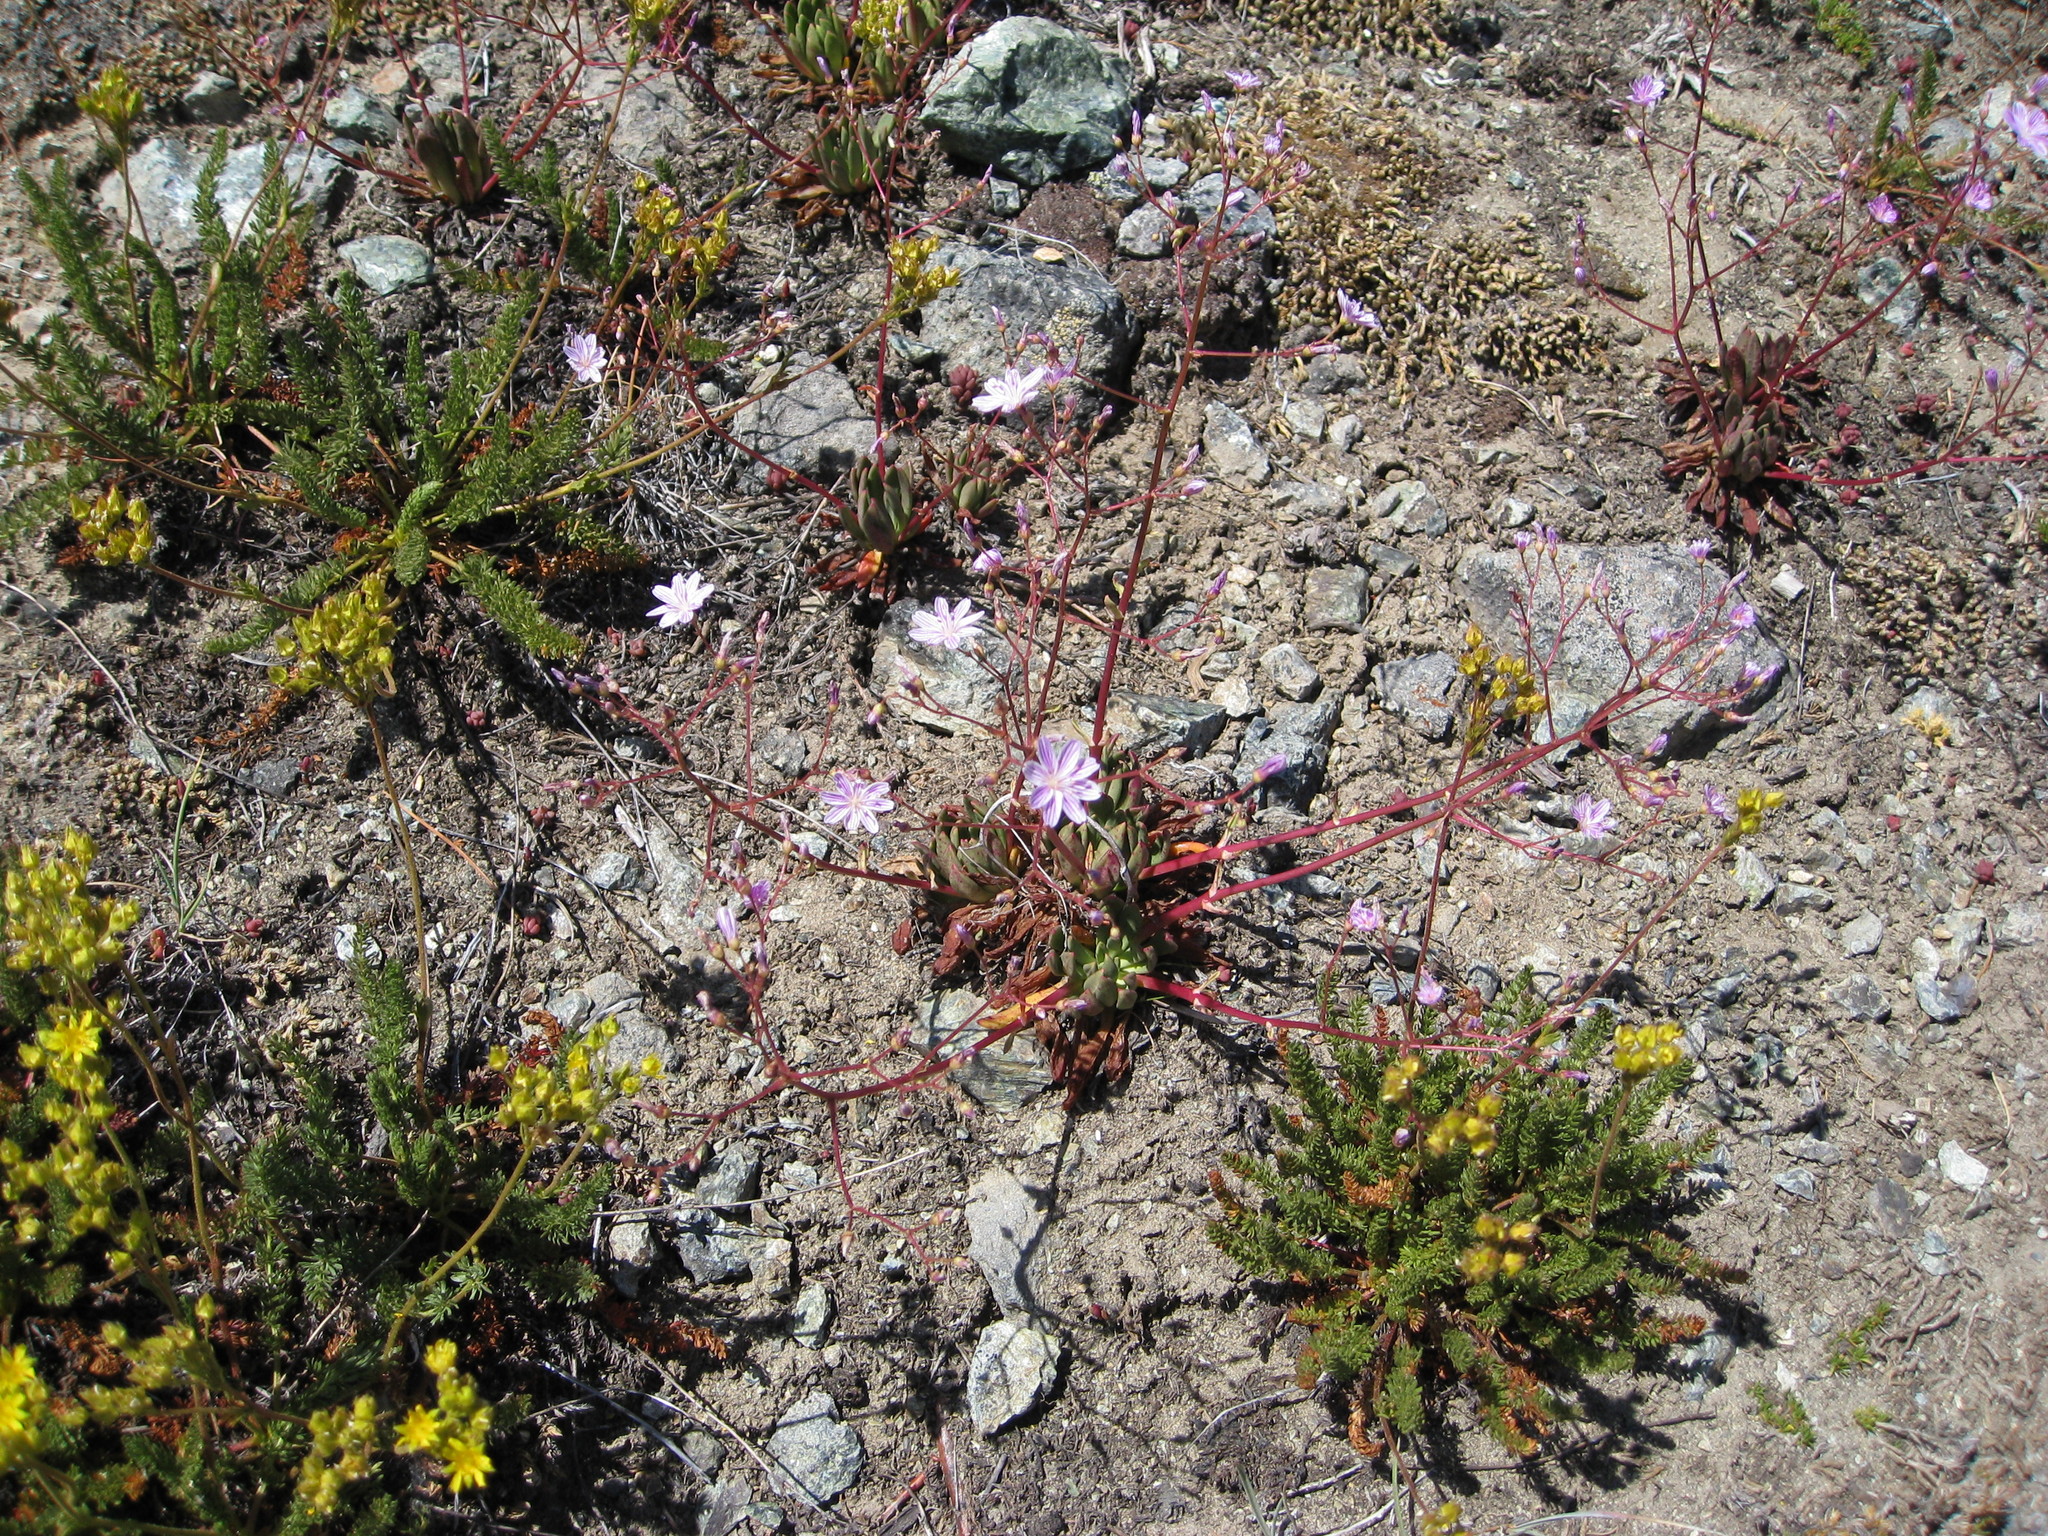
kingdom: Plantae
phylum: Tracheophyta
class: Magnoliopsida
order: Caryophyllales
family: Montiaceae
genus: Lewisia
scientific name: Lewisia columbiana
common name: Columbia lewisia
